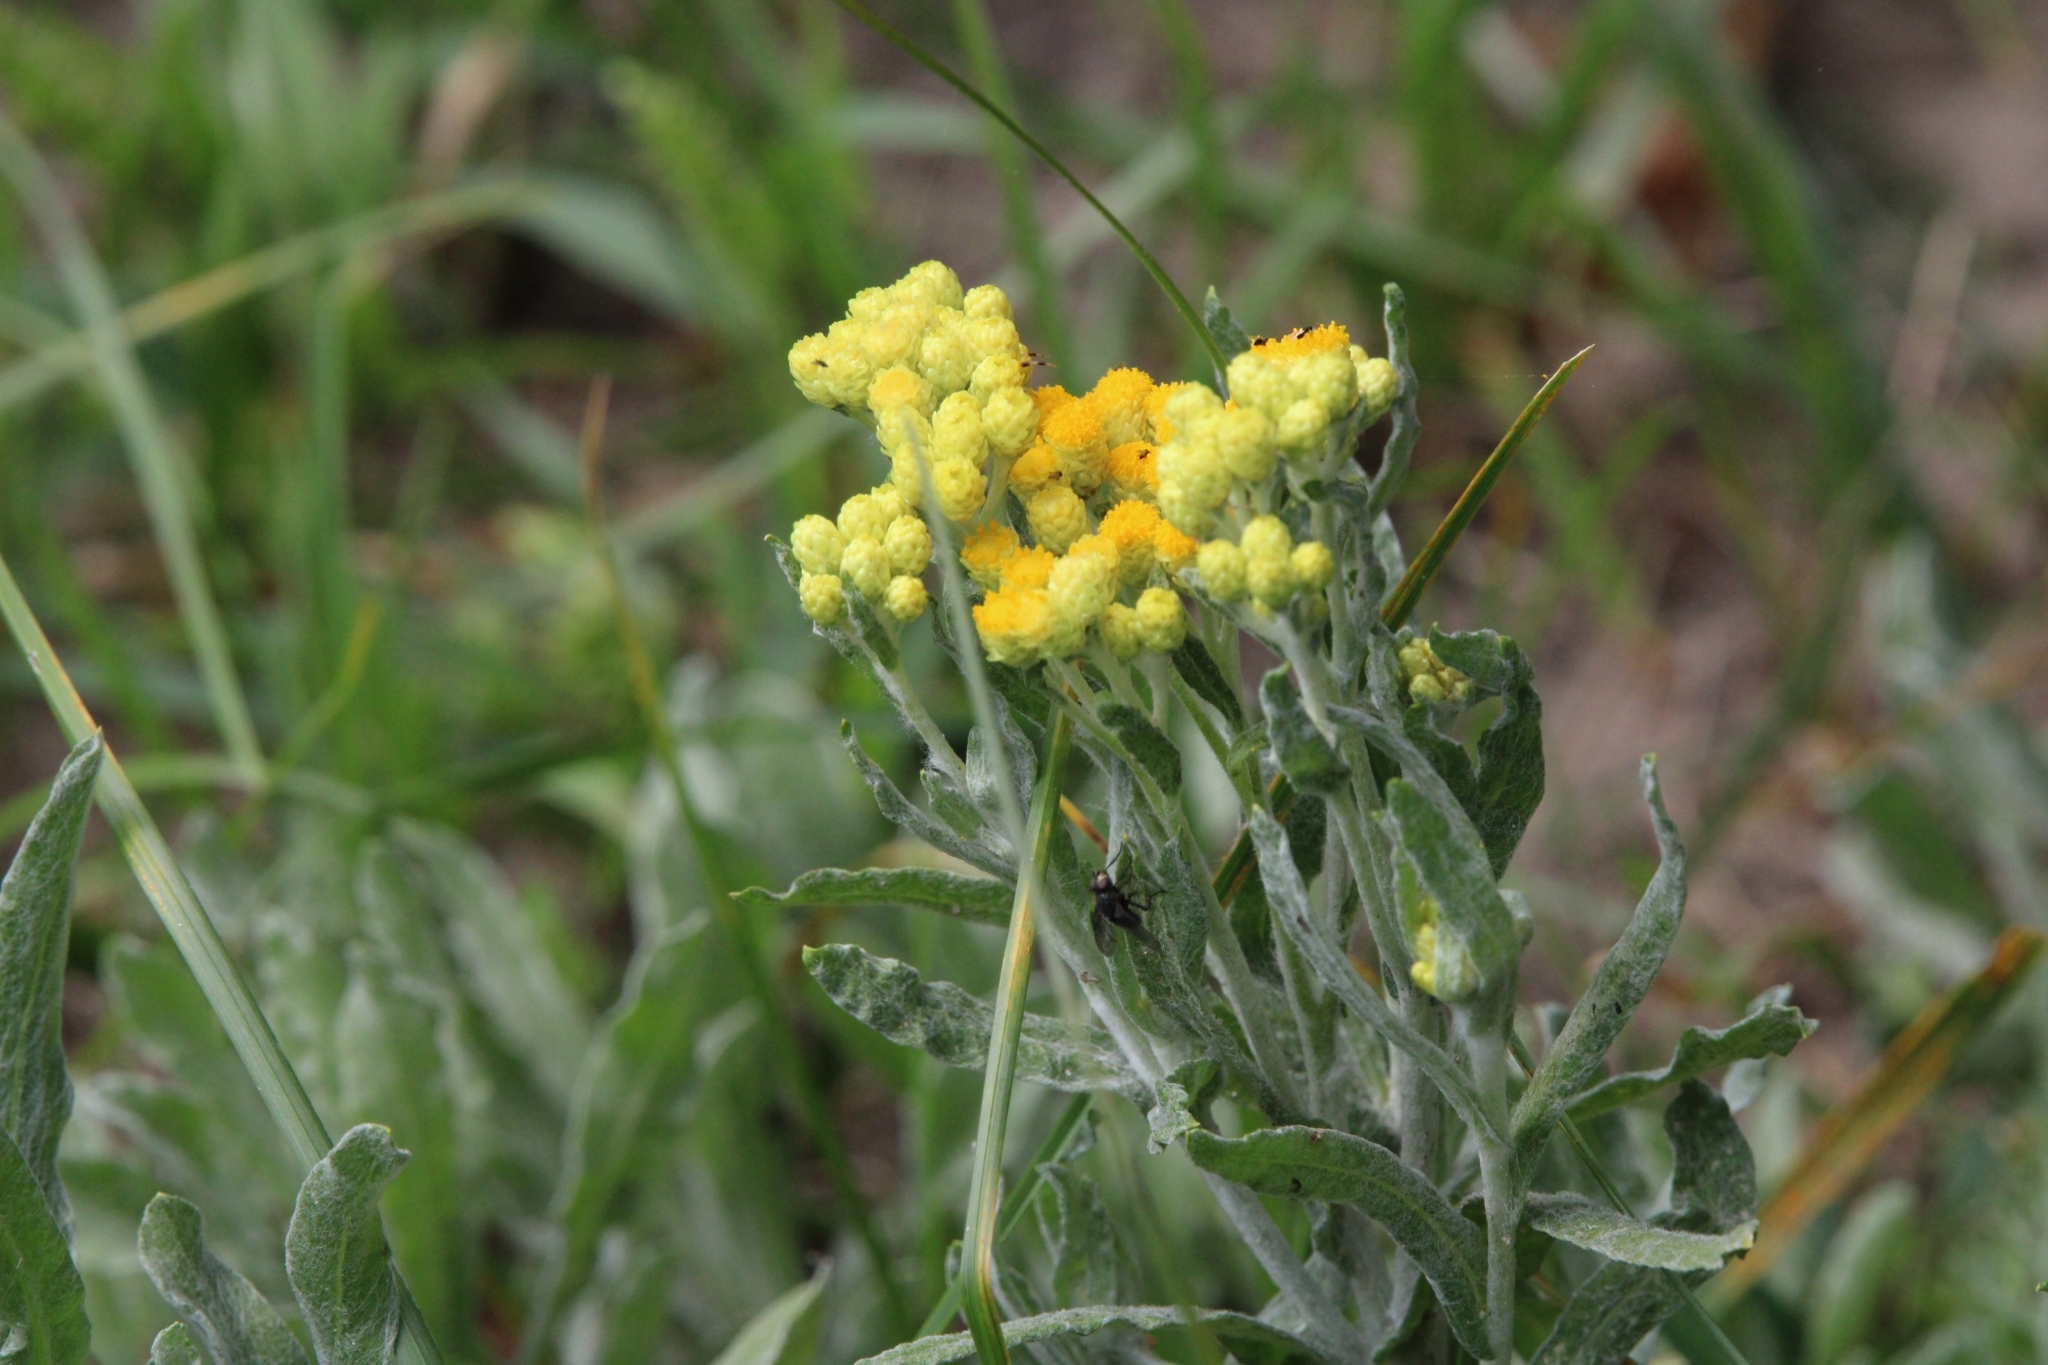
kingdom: Plantae
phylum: Tracheophyta
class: Magnoliopsida
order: Asterales
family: Asteraceae
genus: Helichrysum
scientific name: Helichrysum arenarium
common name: Strawflower
